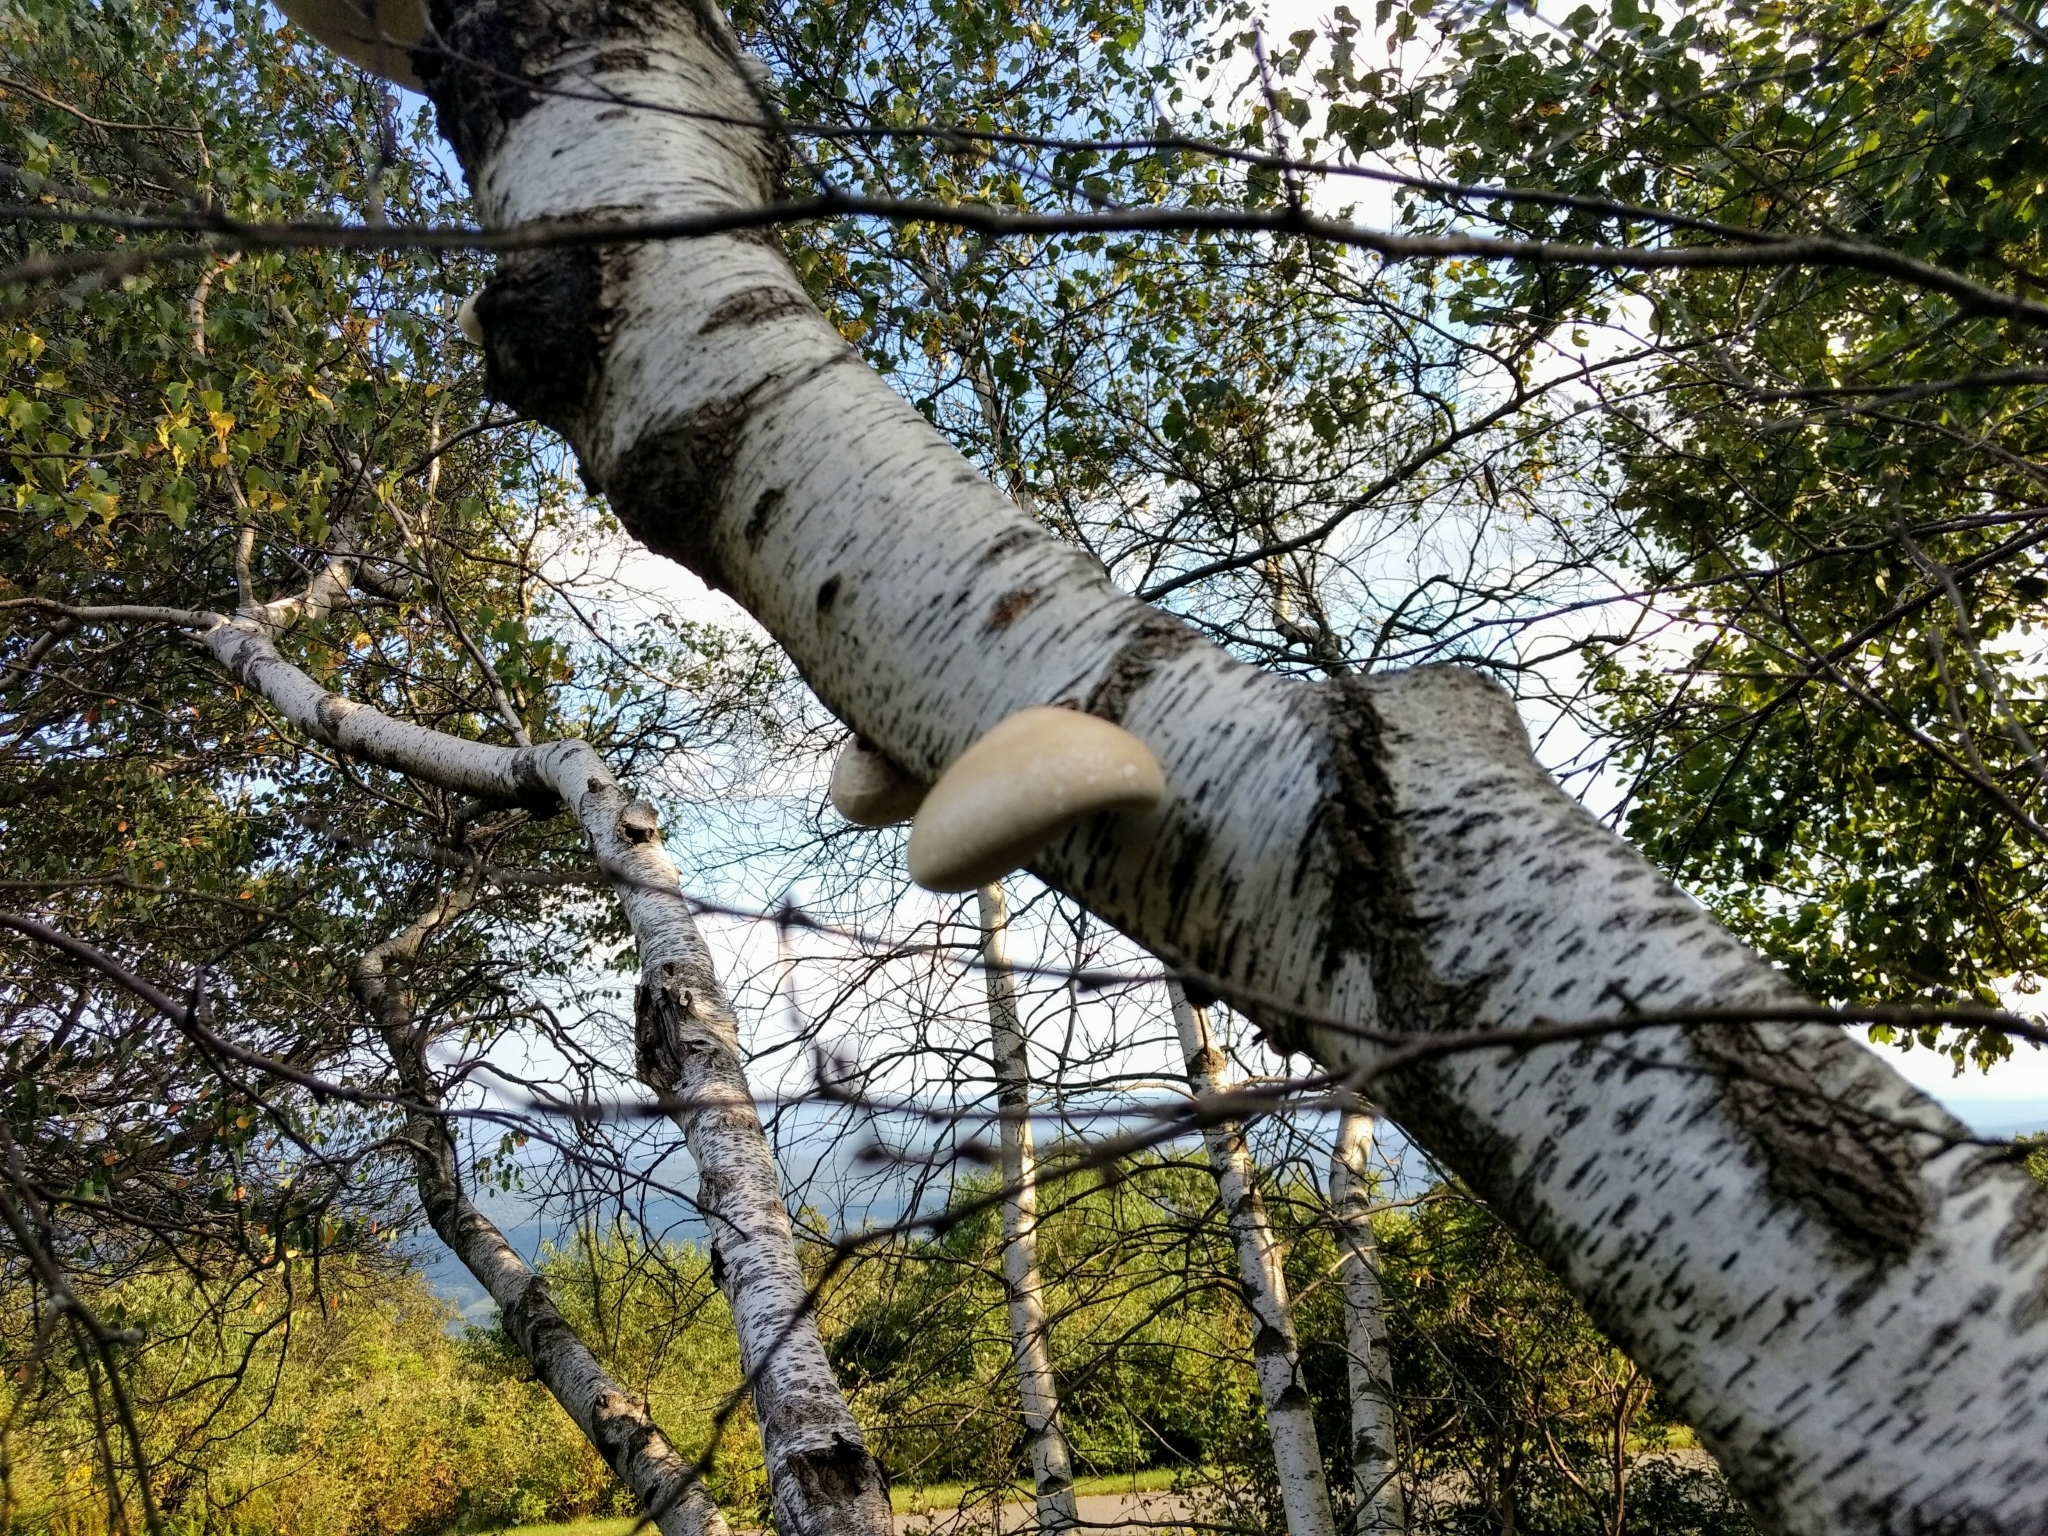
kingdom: Fungi
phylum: Basidiomycota
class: Agaricomycetes
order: Polyporales
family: Fomitopsidaceae
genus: Fomitopsis
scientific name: Fomitopsis betulina
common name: Birch polypore
